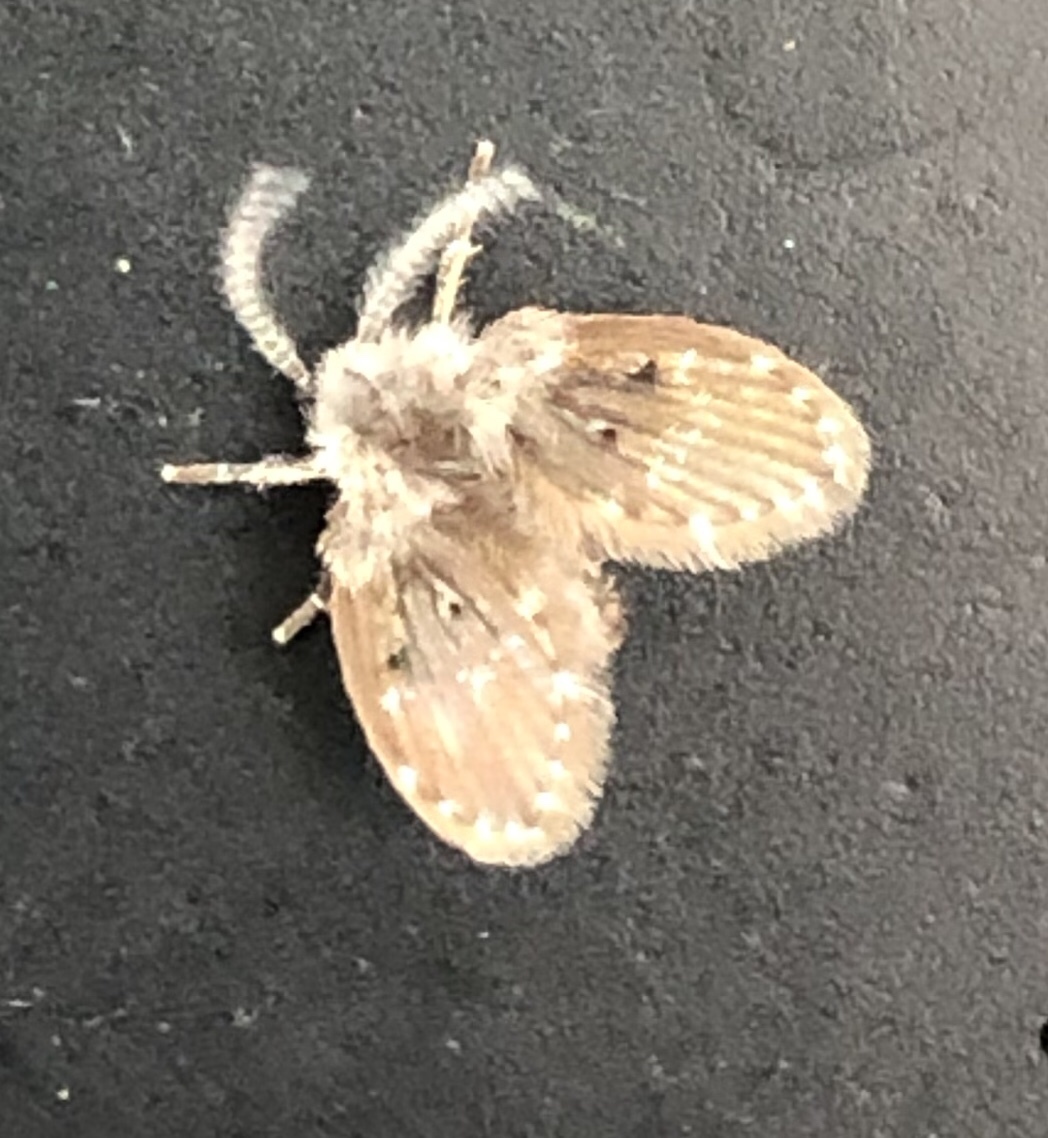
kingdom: Animalia
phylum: Arthropoda
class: Insecta
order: Diptera
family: Psychodidae
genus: Clogmia
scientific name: Clogmia albipunctatus
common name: White-spotted moth fly
